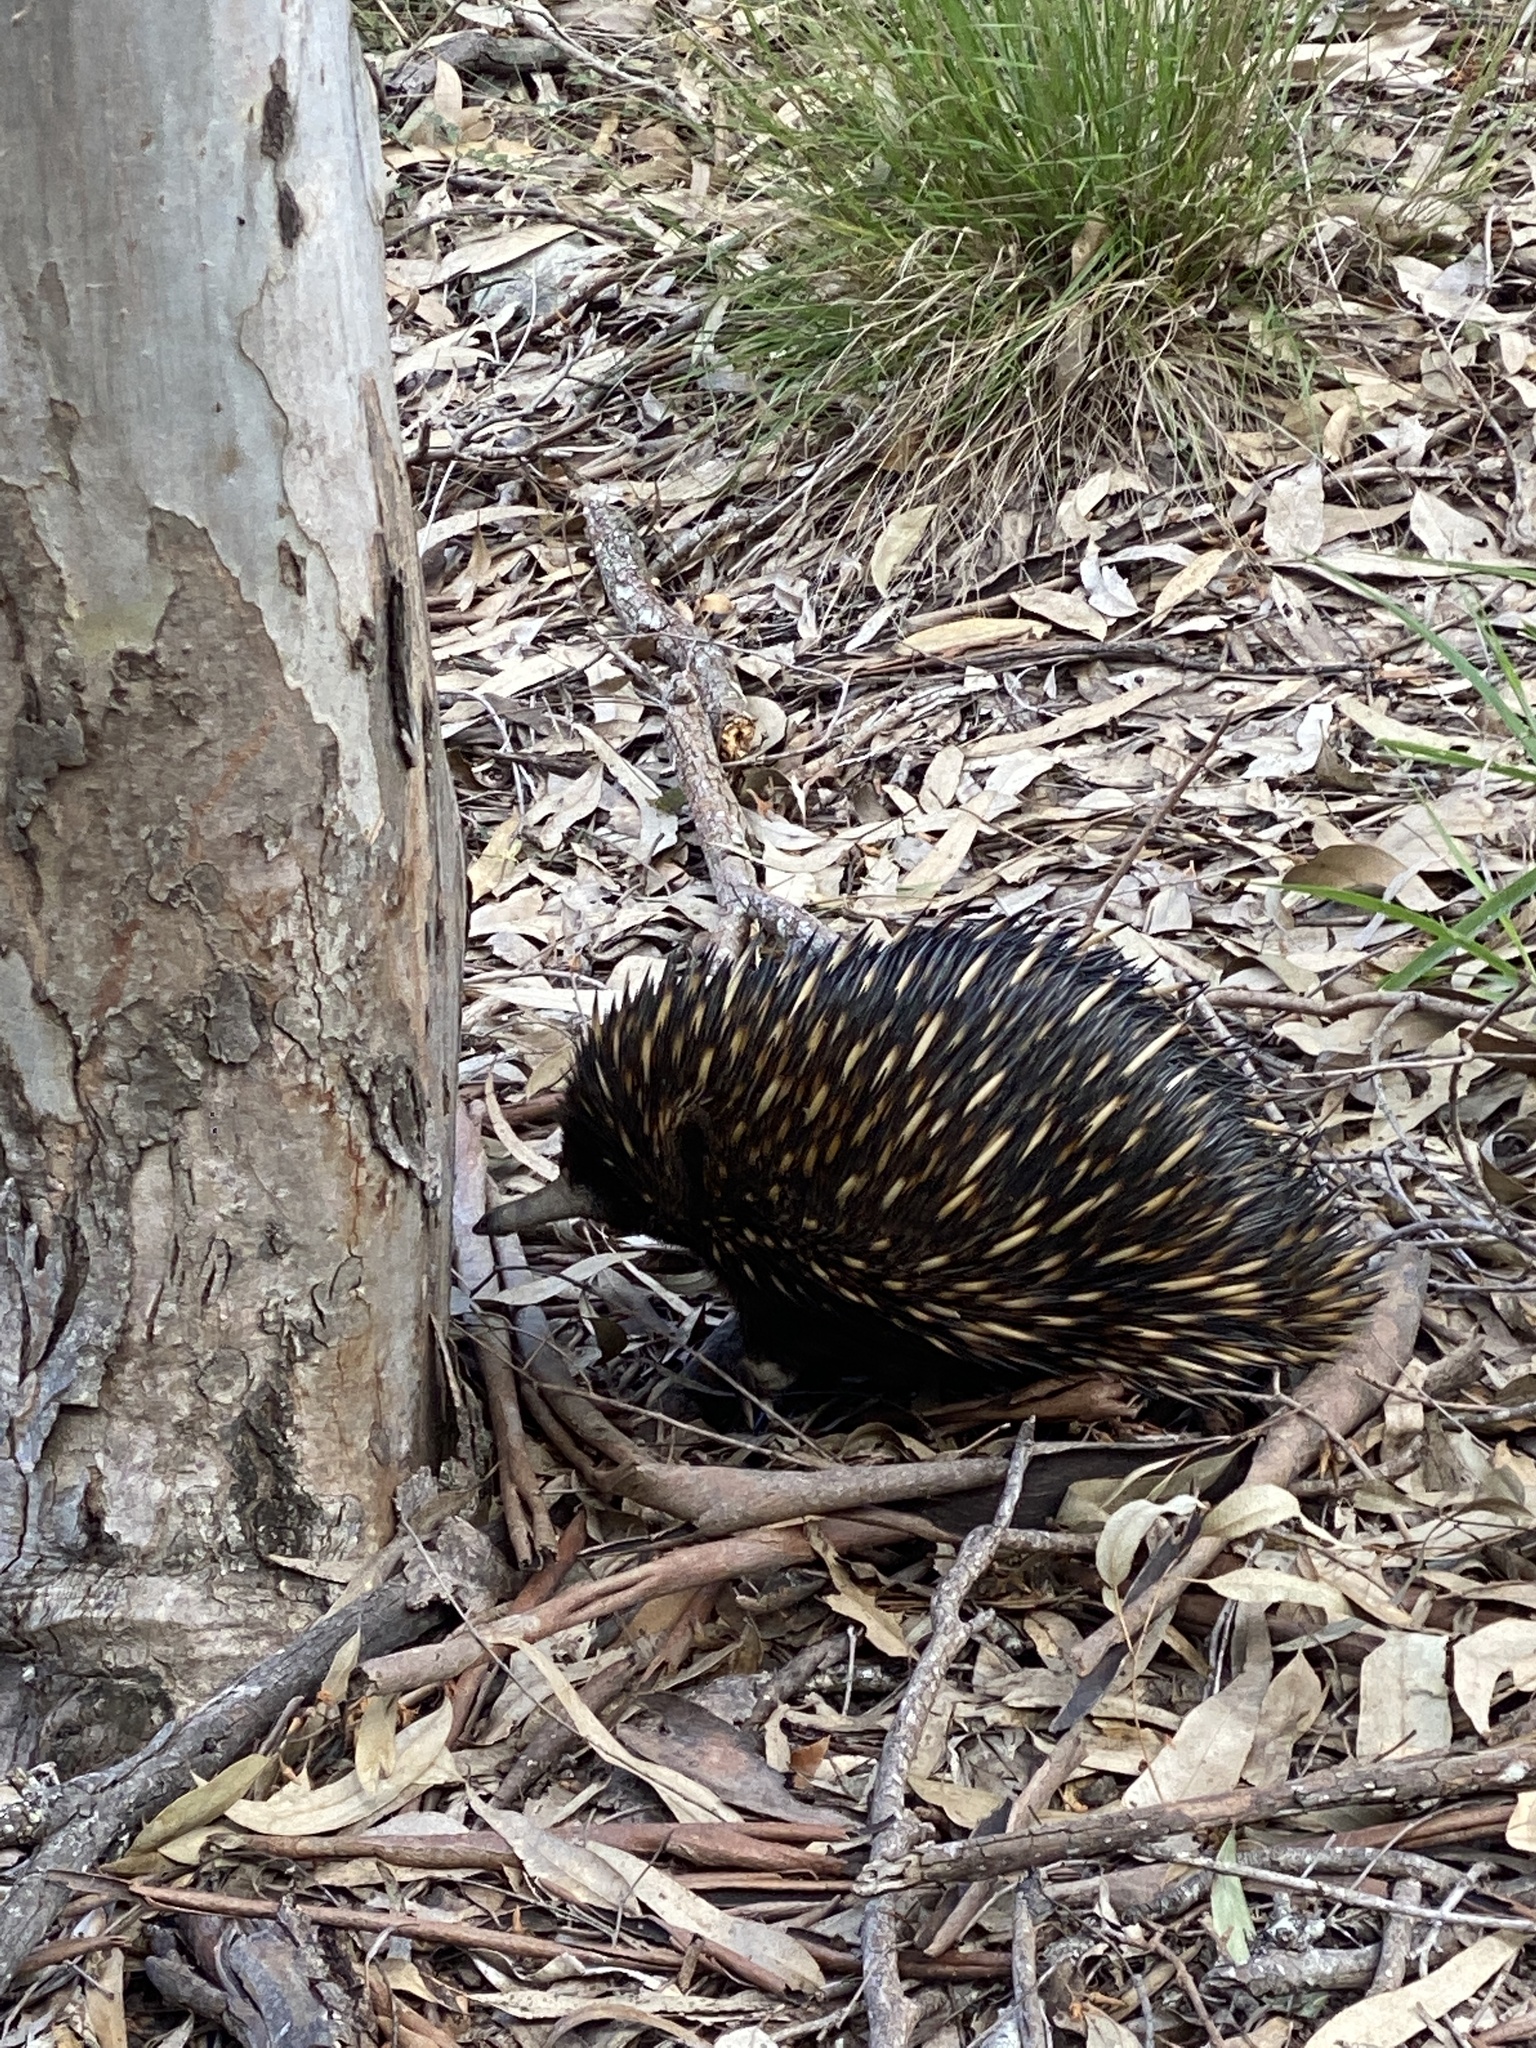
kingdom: Animalia
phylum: Chordata
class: Mammalia
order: Monotremata
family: Tachyglossidae
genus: Tachyglossus
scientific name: Tachyglossus aculeatus
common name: Short-beaked echidna
